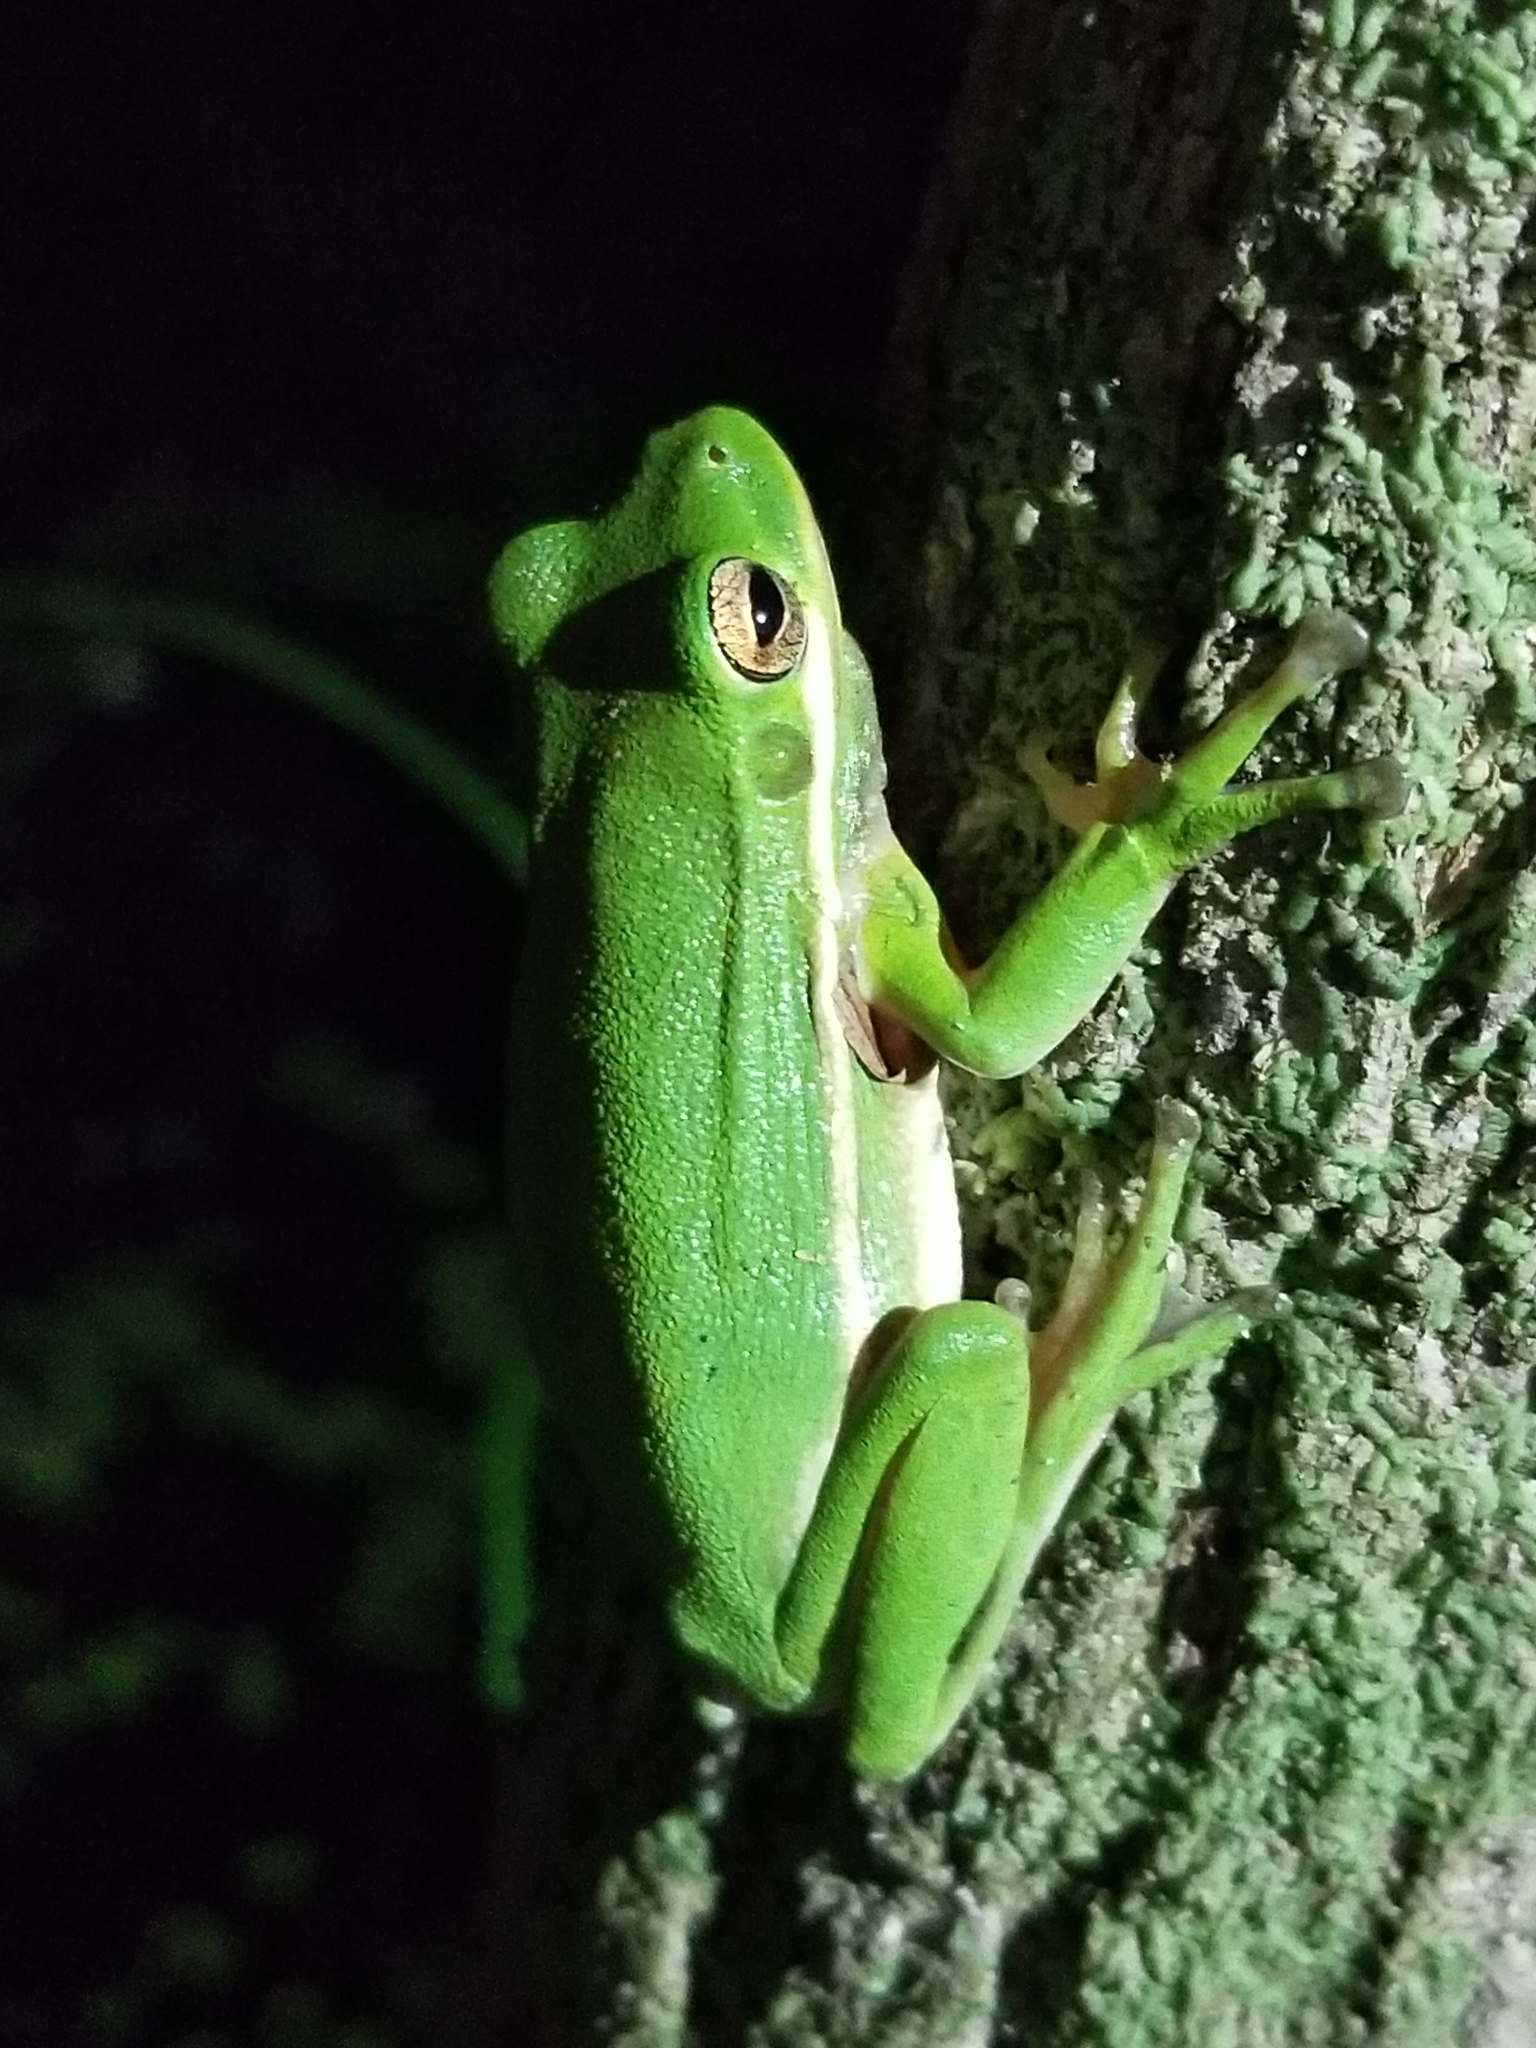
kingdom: Animalia
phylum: Chordata
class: Amphibia
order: Anura
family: Hylidae
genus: Dryophytes
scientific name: Dryophytes cinereus
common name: Green treefrog
